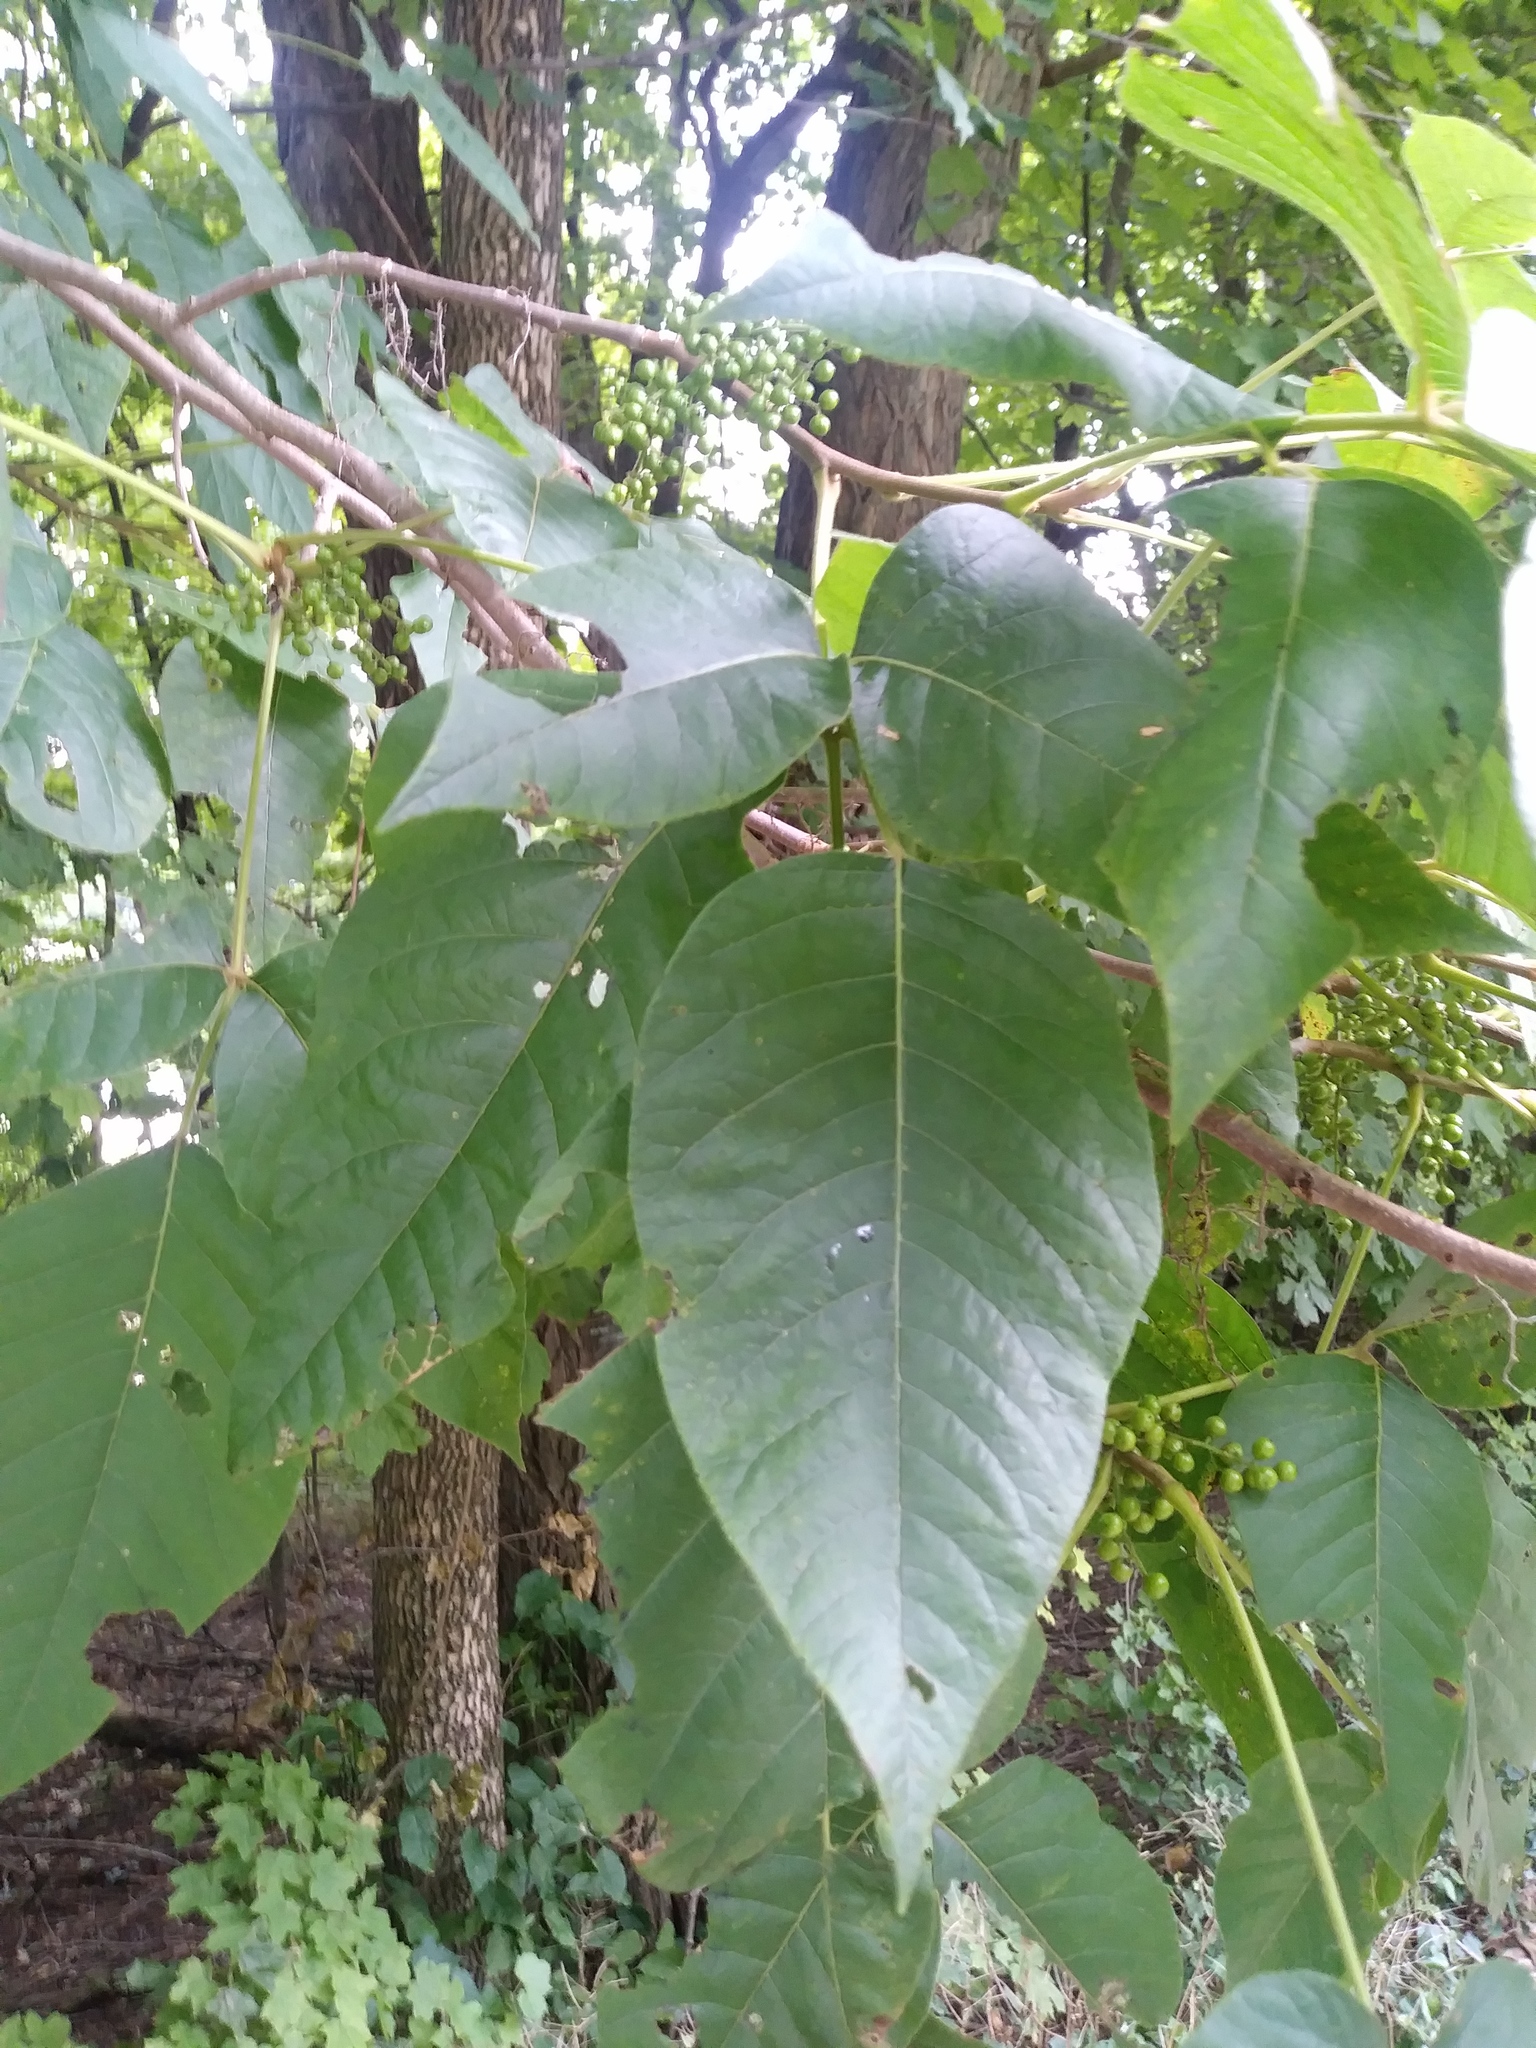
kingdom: Plantae
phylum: Tracheophyta
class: Magnoliopsida
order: Sapindales
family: Anacardiaceae
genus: Toxicodendron
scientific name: Toxicodendron radicans
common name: Poison ivy
